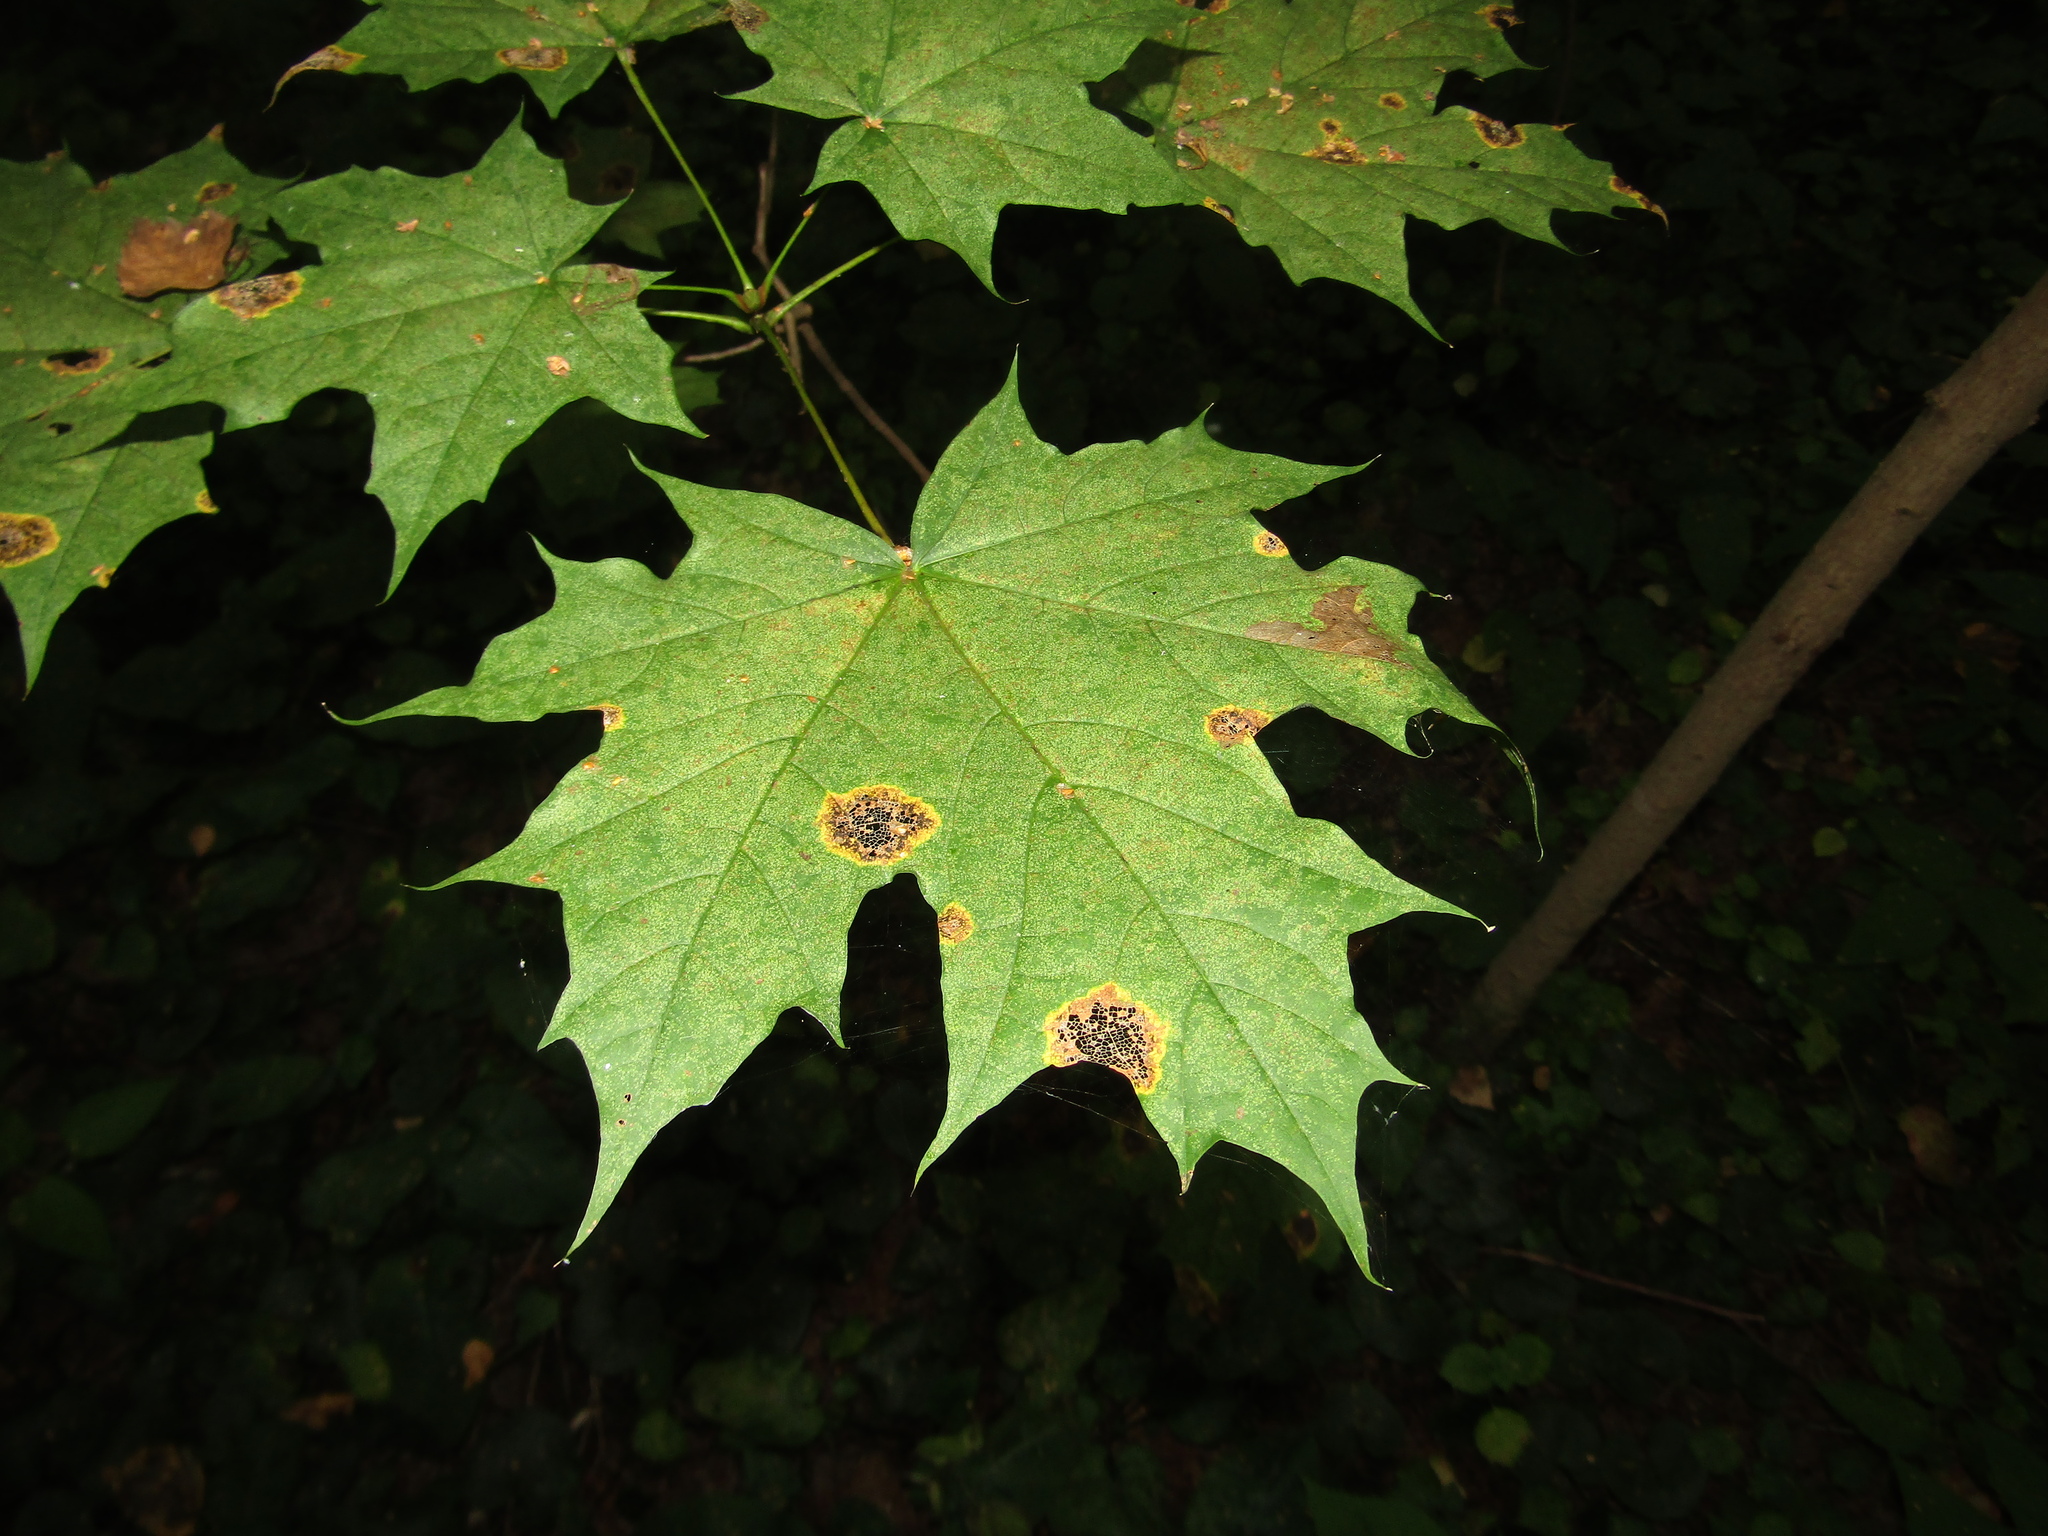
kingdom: Fungi
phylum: Ascomycota
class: Leotiomycetes
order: Rhytismatales
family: Rhytismataceae
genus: Rhytisma
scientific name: Rhytisma acerinum
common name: European tar spot
